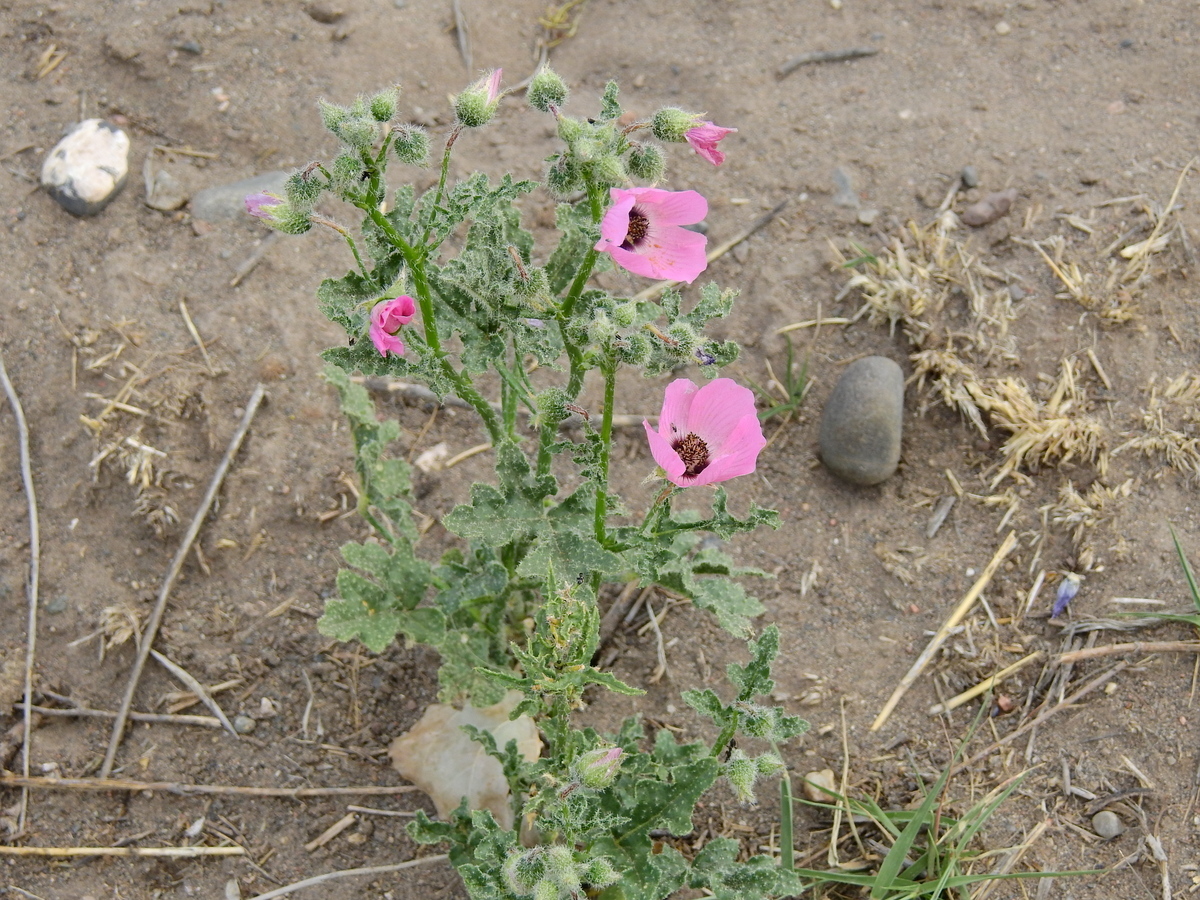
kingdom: Plantae
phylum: Tracheophyta
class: Magnoliopsida
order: Malvales
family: Malvaceae
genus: Lecanophora
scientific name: Lecanophora heterophylla
